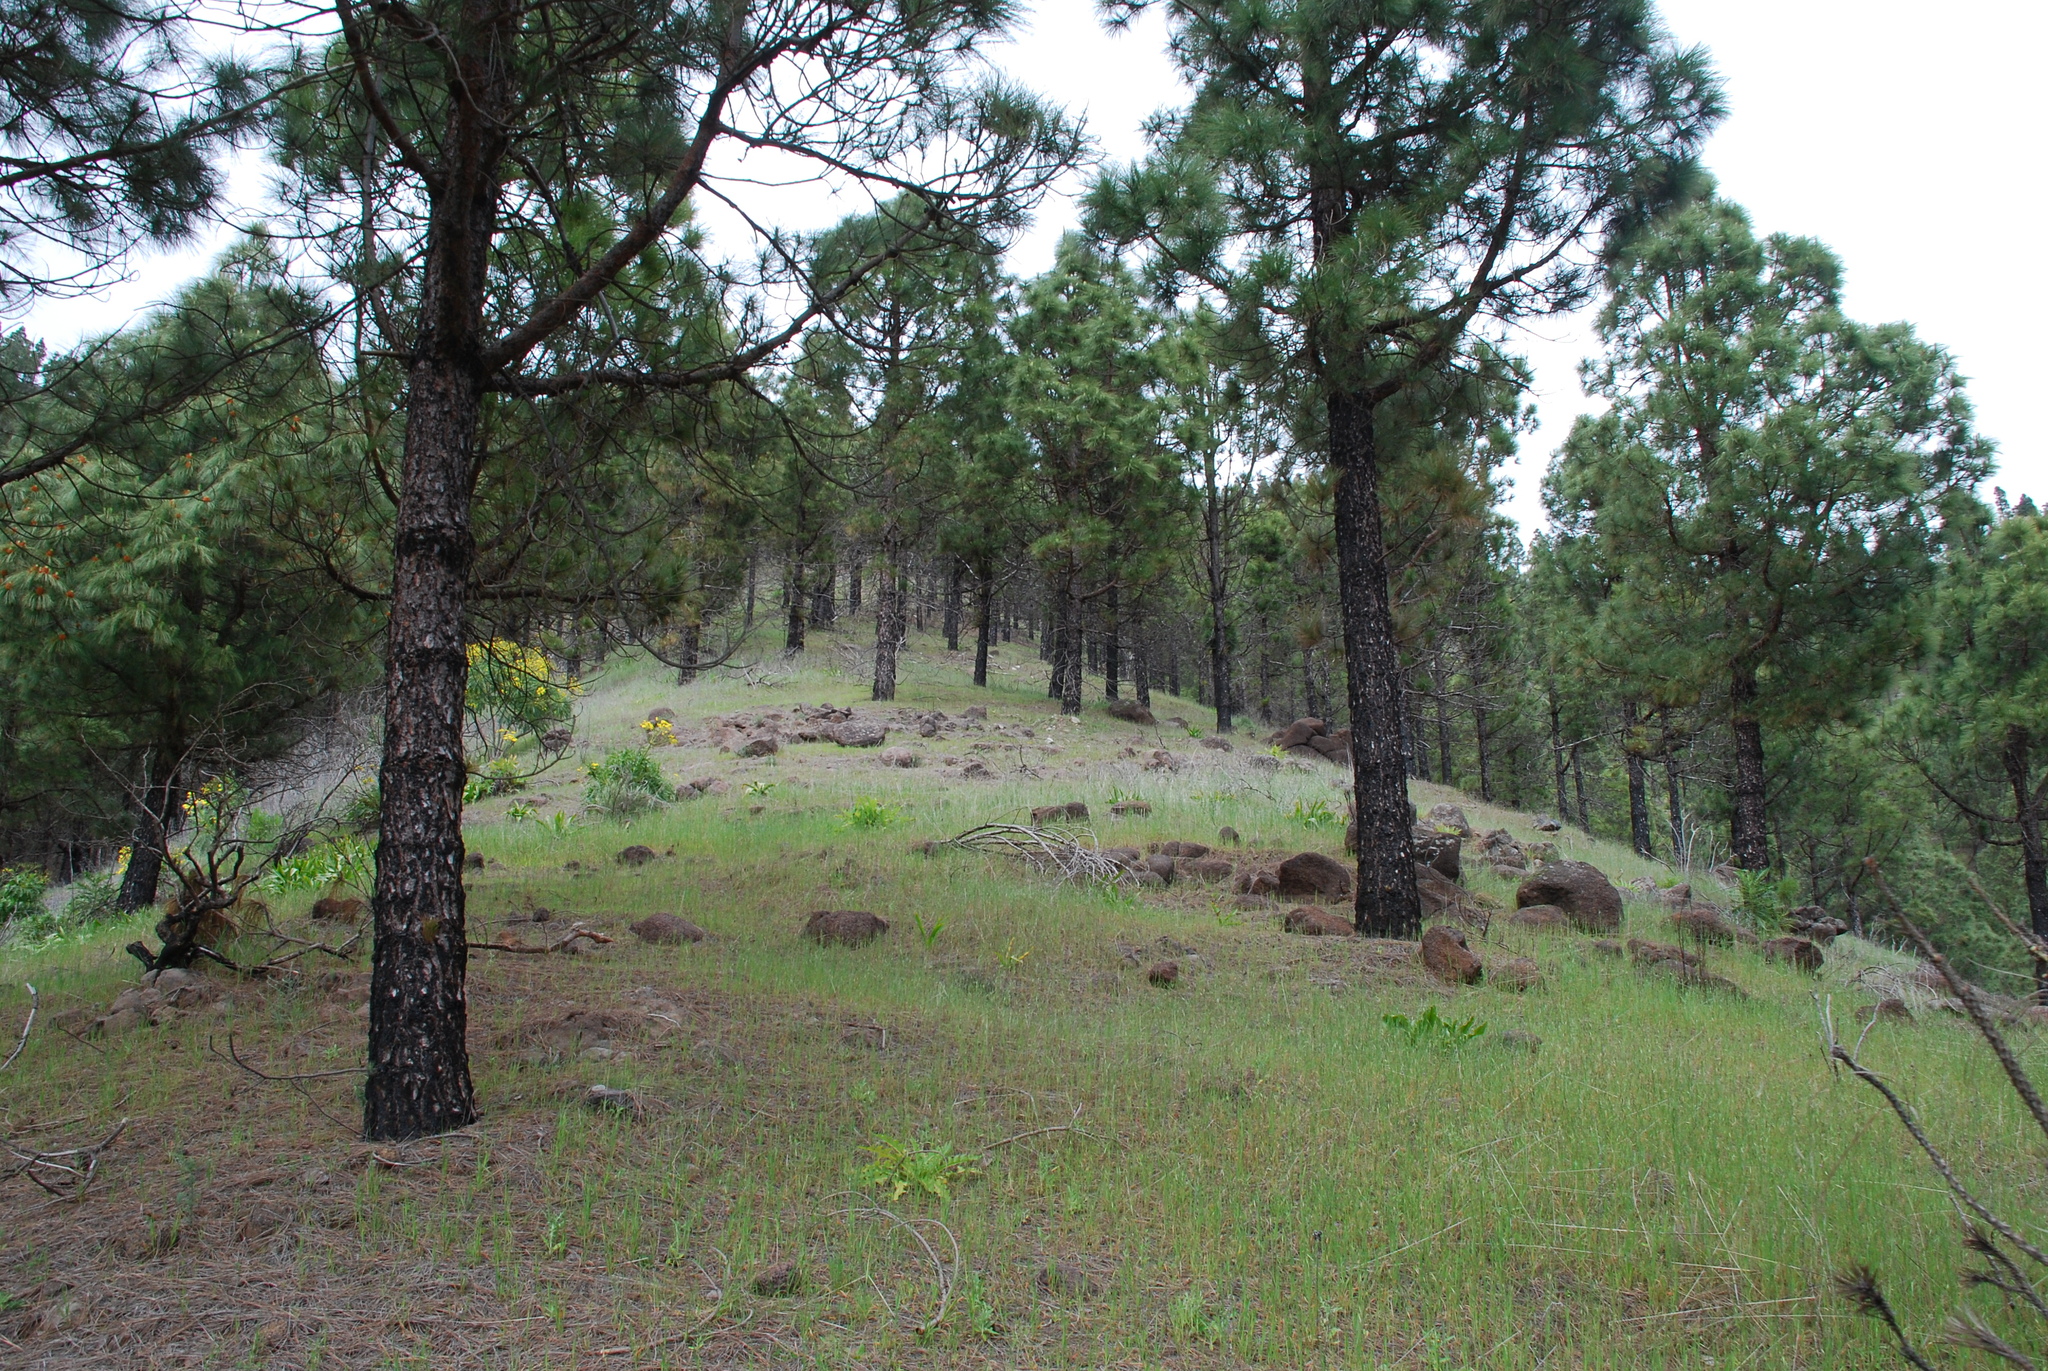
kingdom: Plantae
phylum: Tracheophyta
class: Pinopsida
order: Pinales
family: Pinaceae
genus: Pinus
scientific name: Pinus canariensis
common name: Canary islands pine
